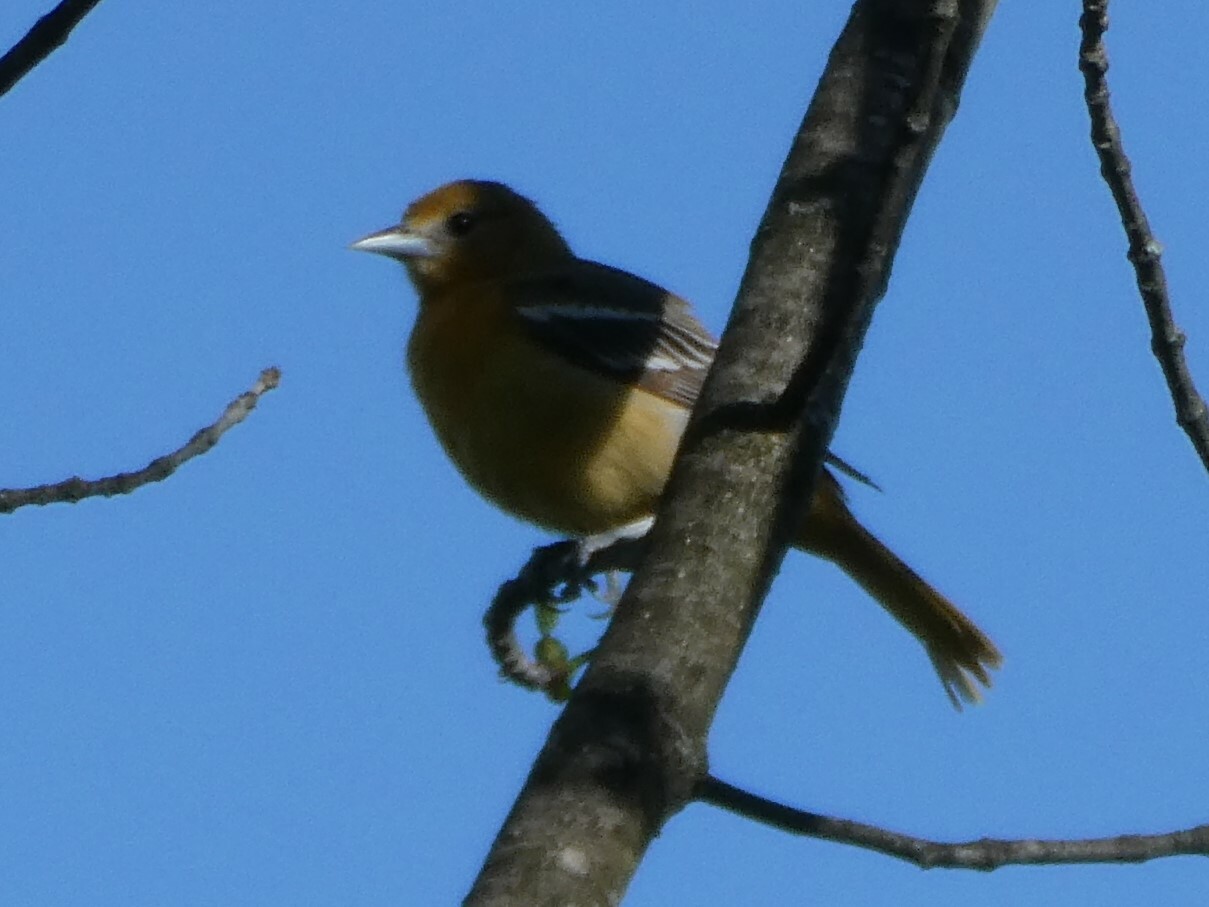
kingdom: Animalia
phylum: Chordata
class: Aves
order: Passeriformes
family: Icteridae
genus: Icterus
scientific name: Icterus galbula
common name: Baltimore oriole
